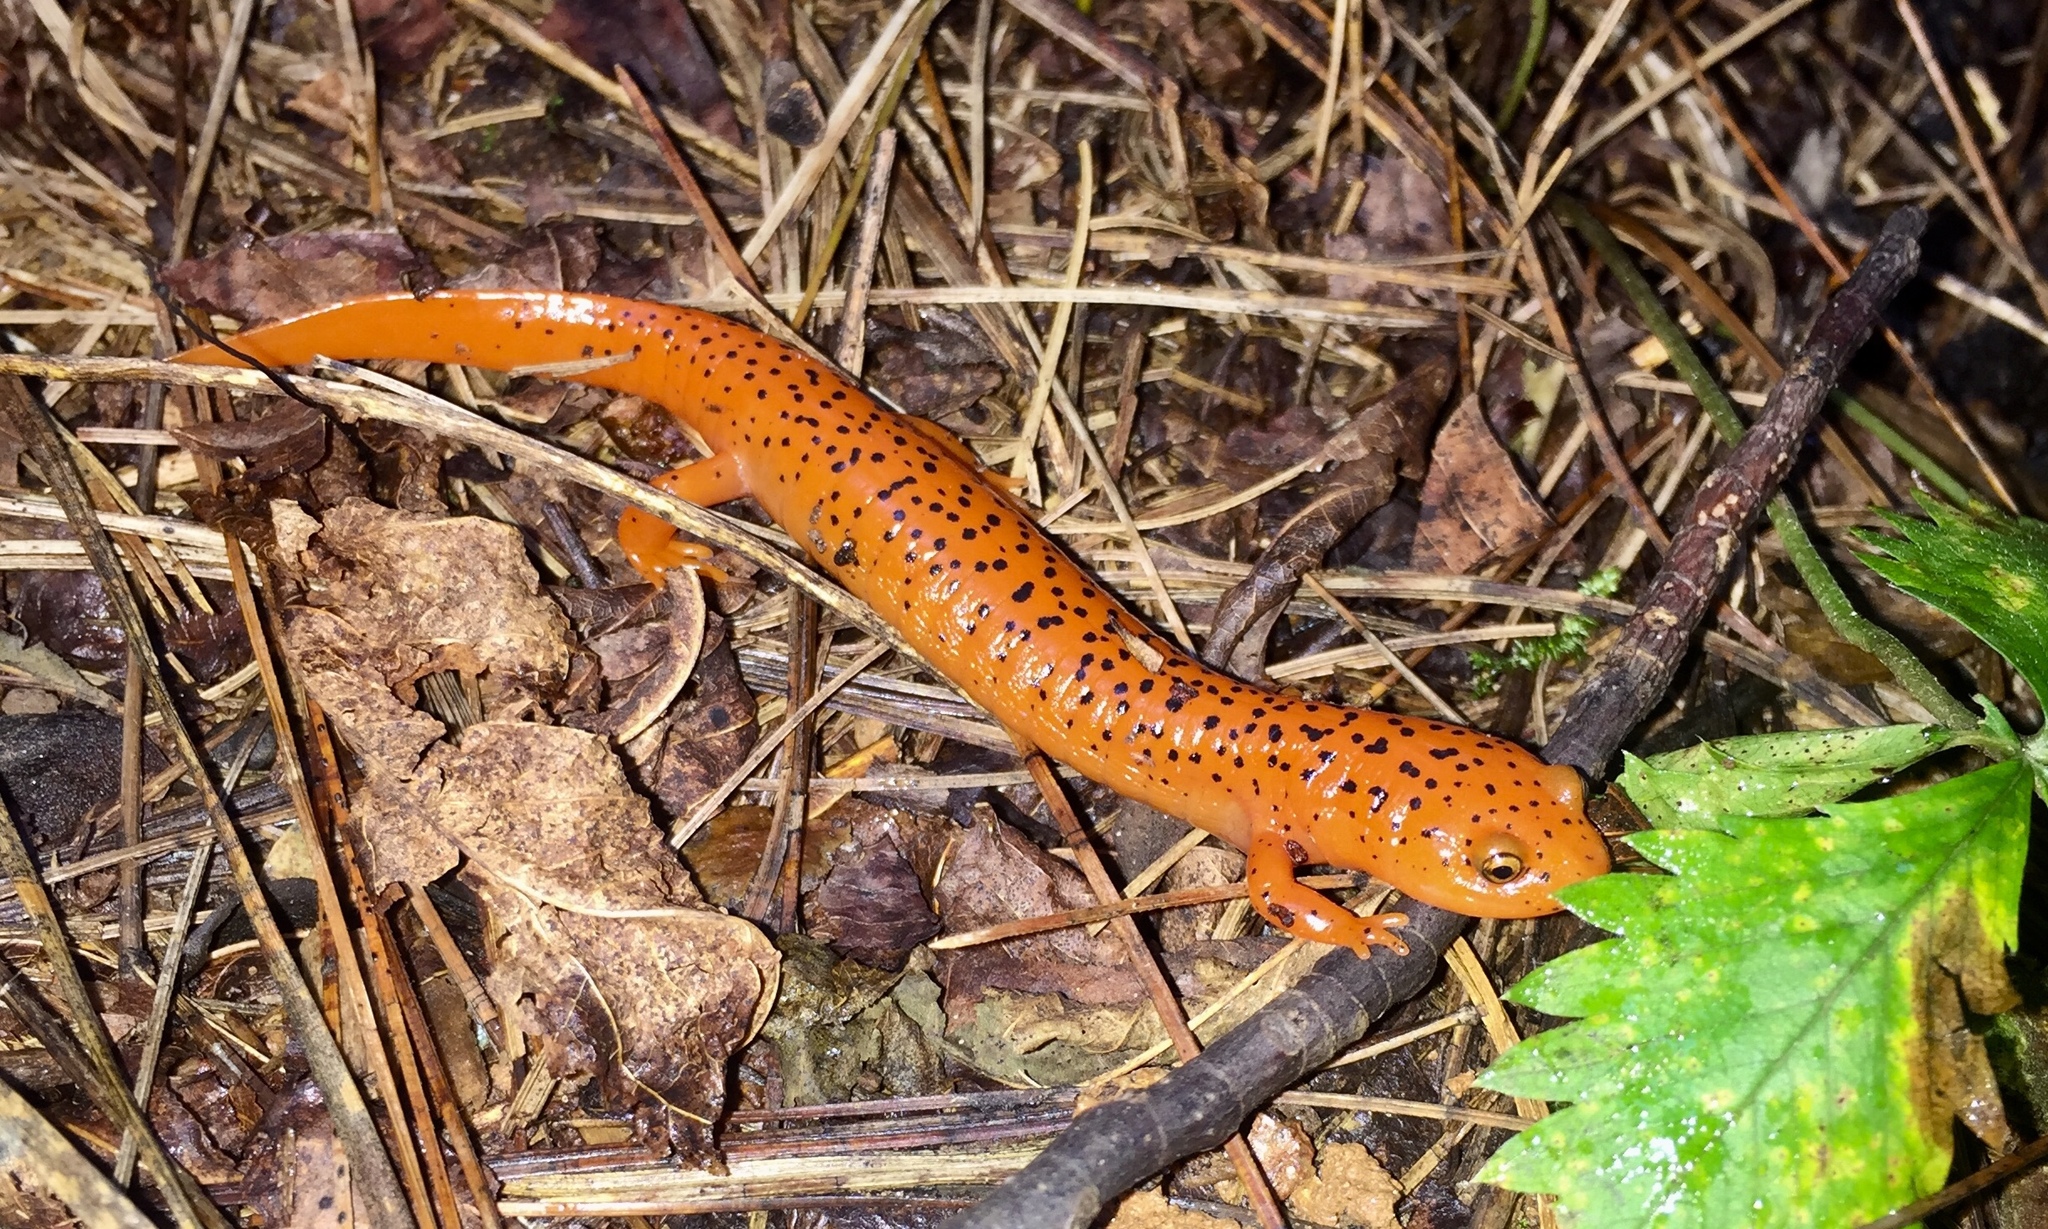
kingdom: Animalia
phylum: Chordata
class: Amphibia
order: Caudata
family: Plethodontidae
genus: Pseudotriton
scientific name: Pseudotriton ruber
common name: Red salamander
